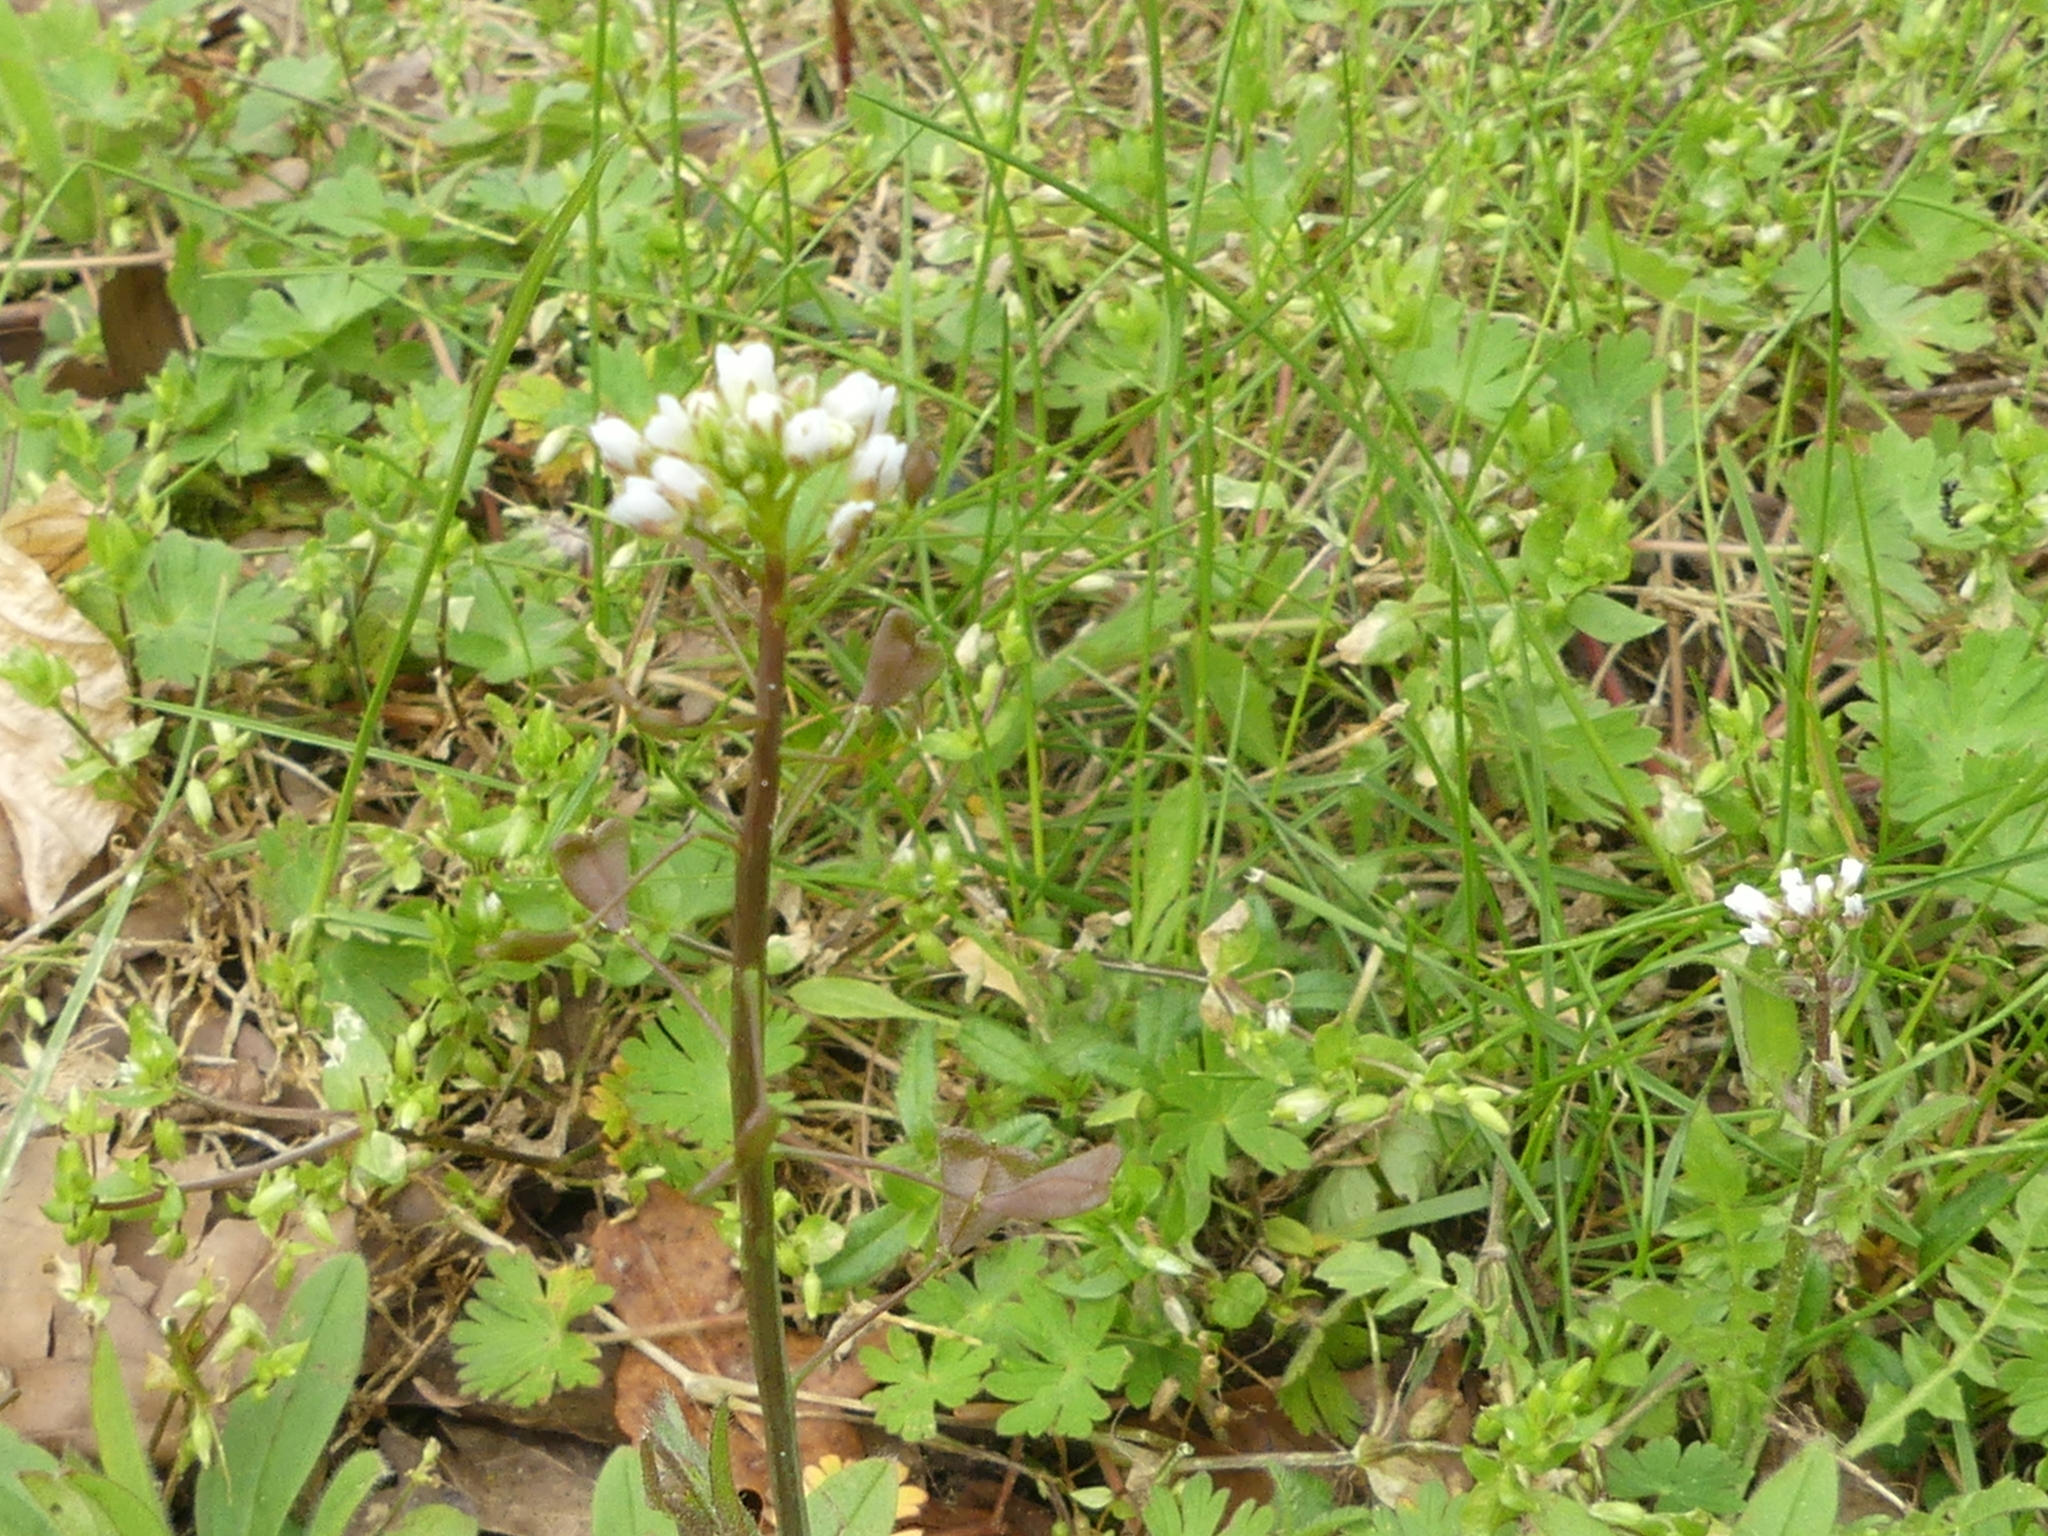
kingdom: Plantae
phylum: Tracheophyta
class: Magnoliopsida
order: Brassicales
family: Brassicaceae
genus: Capsella
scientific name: Capsella bursa-pastoris
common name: Shepherd's purse
